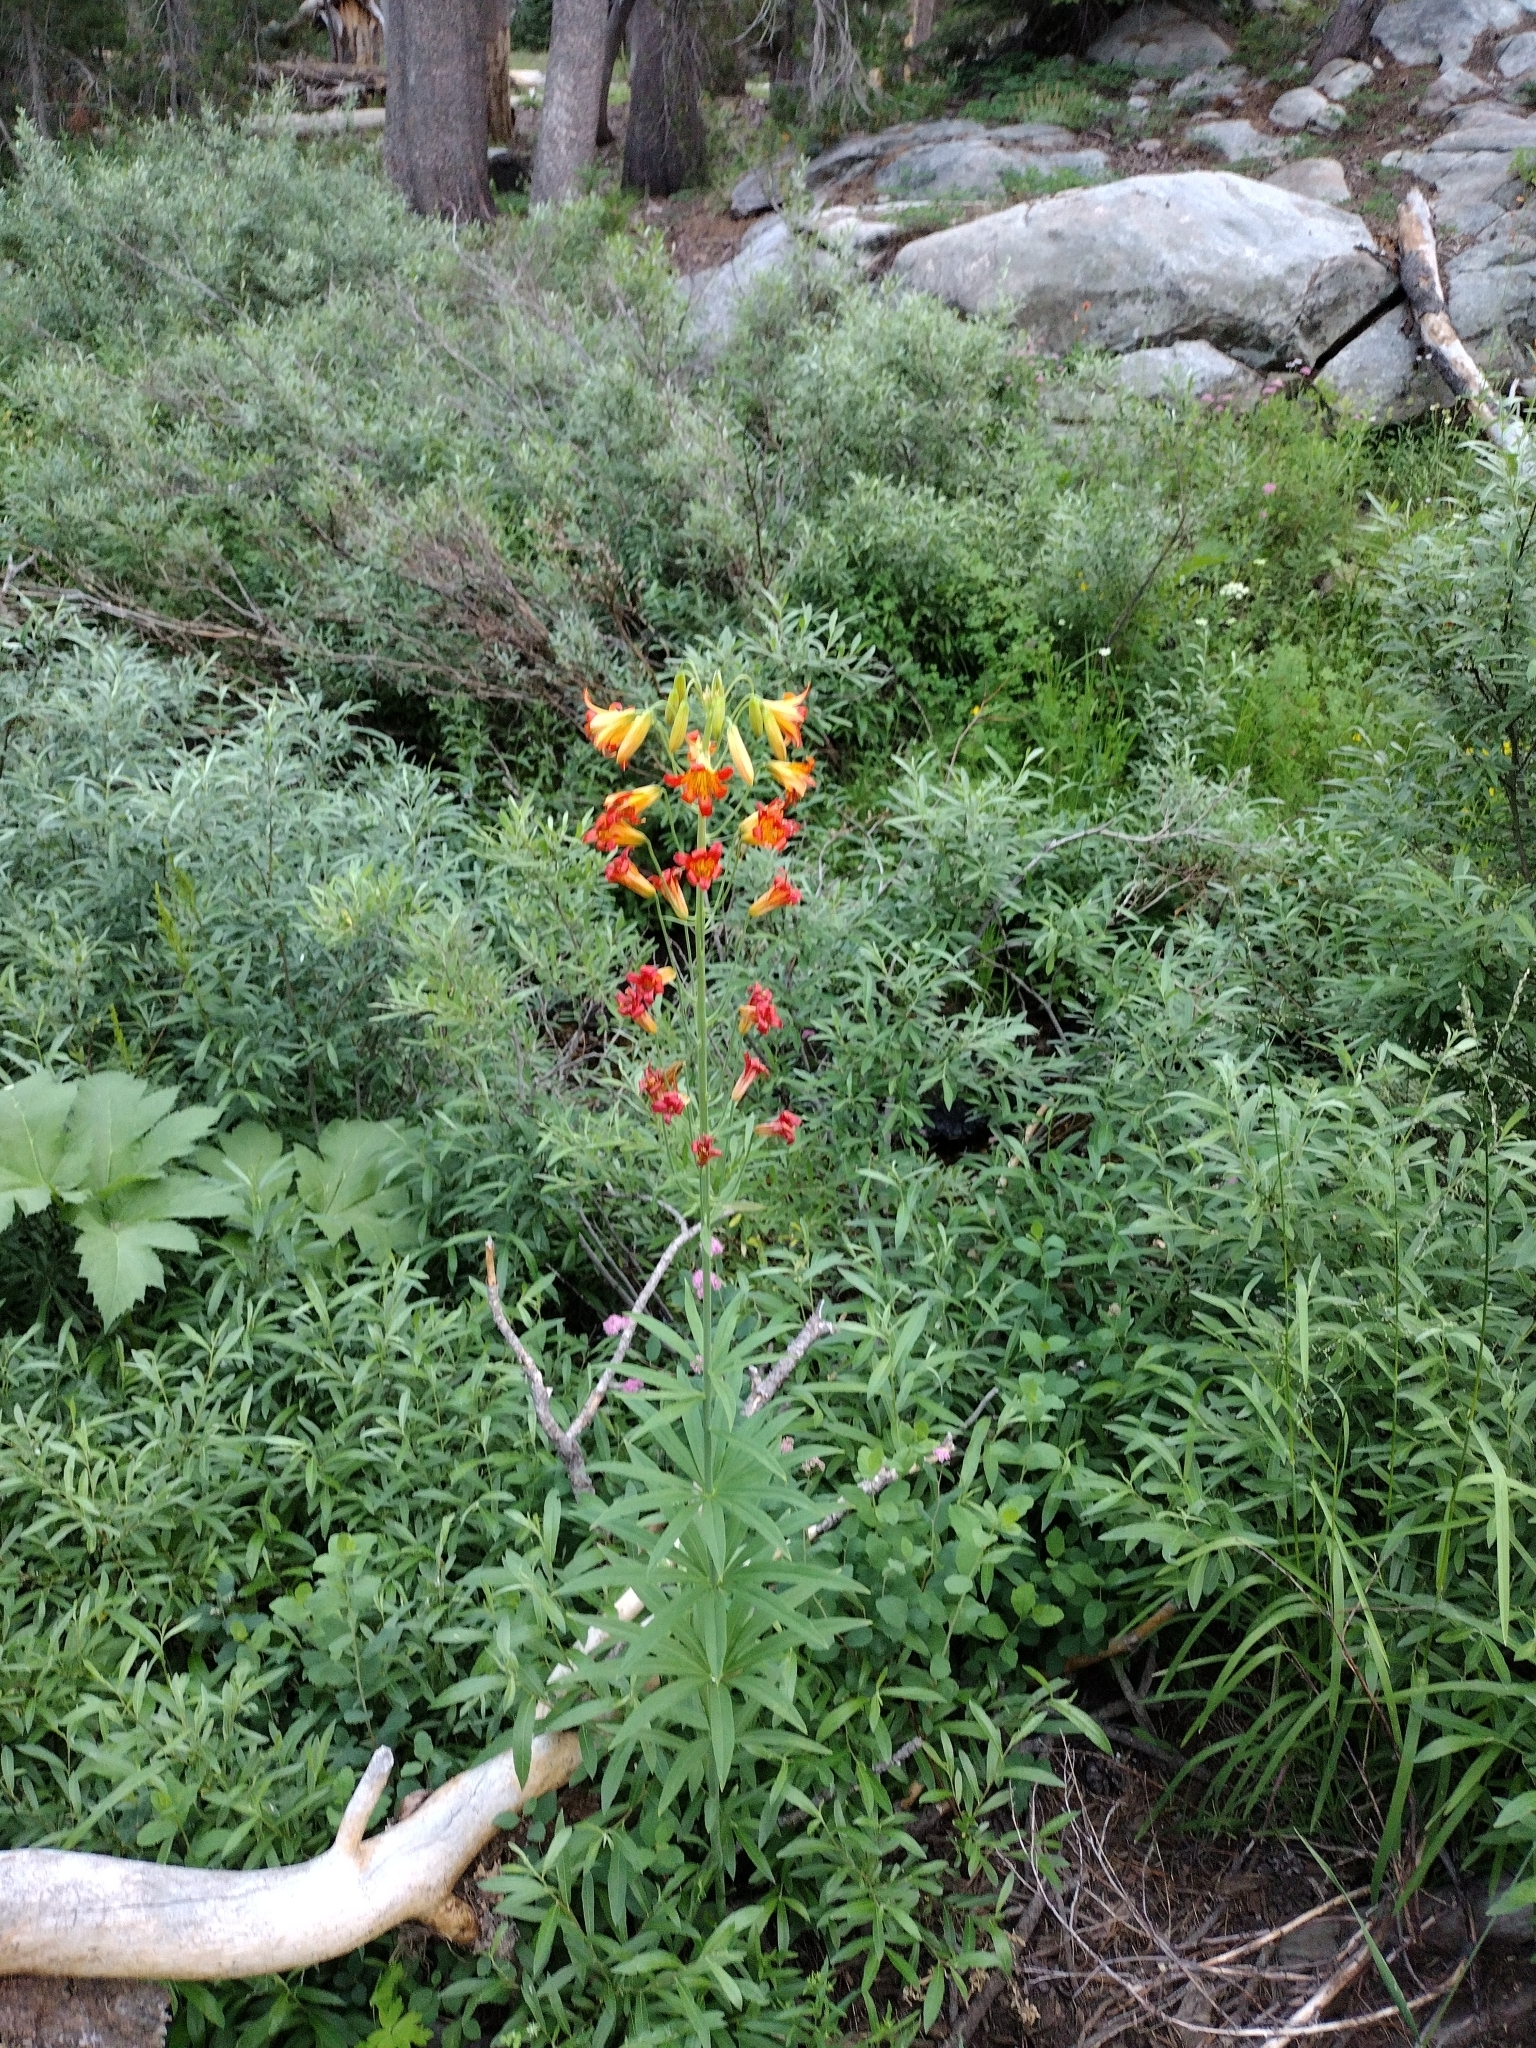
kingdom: Plantae
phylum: Tracheophyta
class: Liliopsida
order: Liliales
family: Liliaceae
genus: Lilium
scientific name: Lilium parvum
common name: Alpine lily
